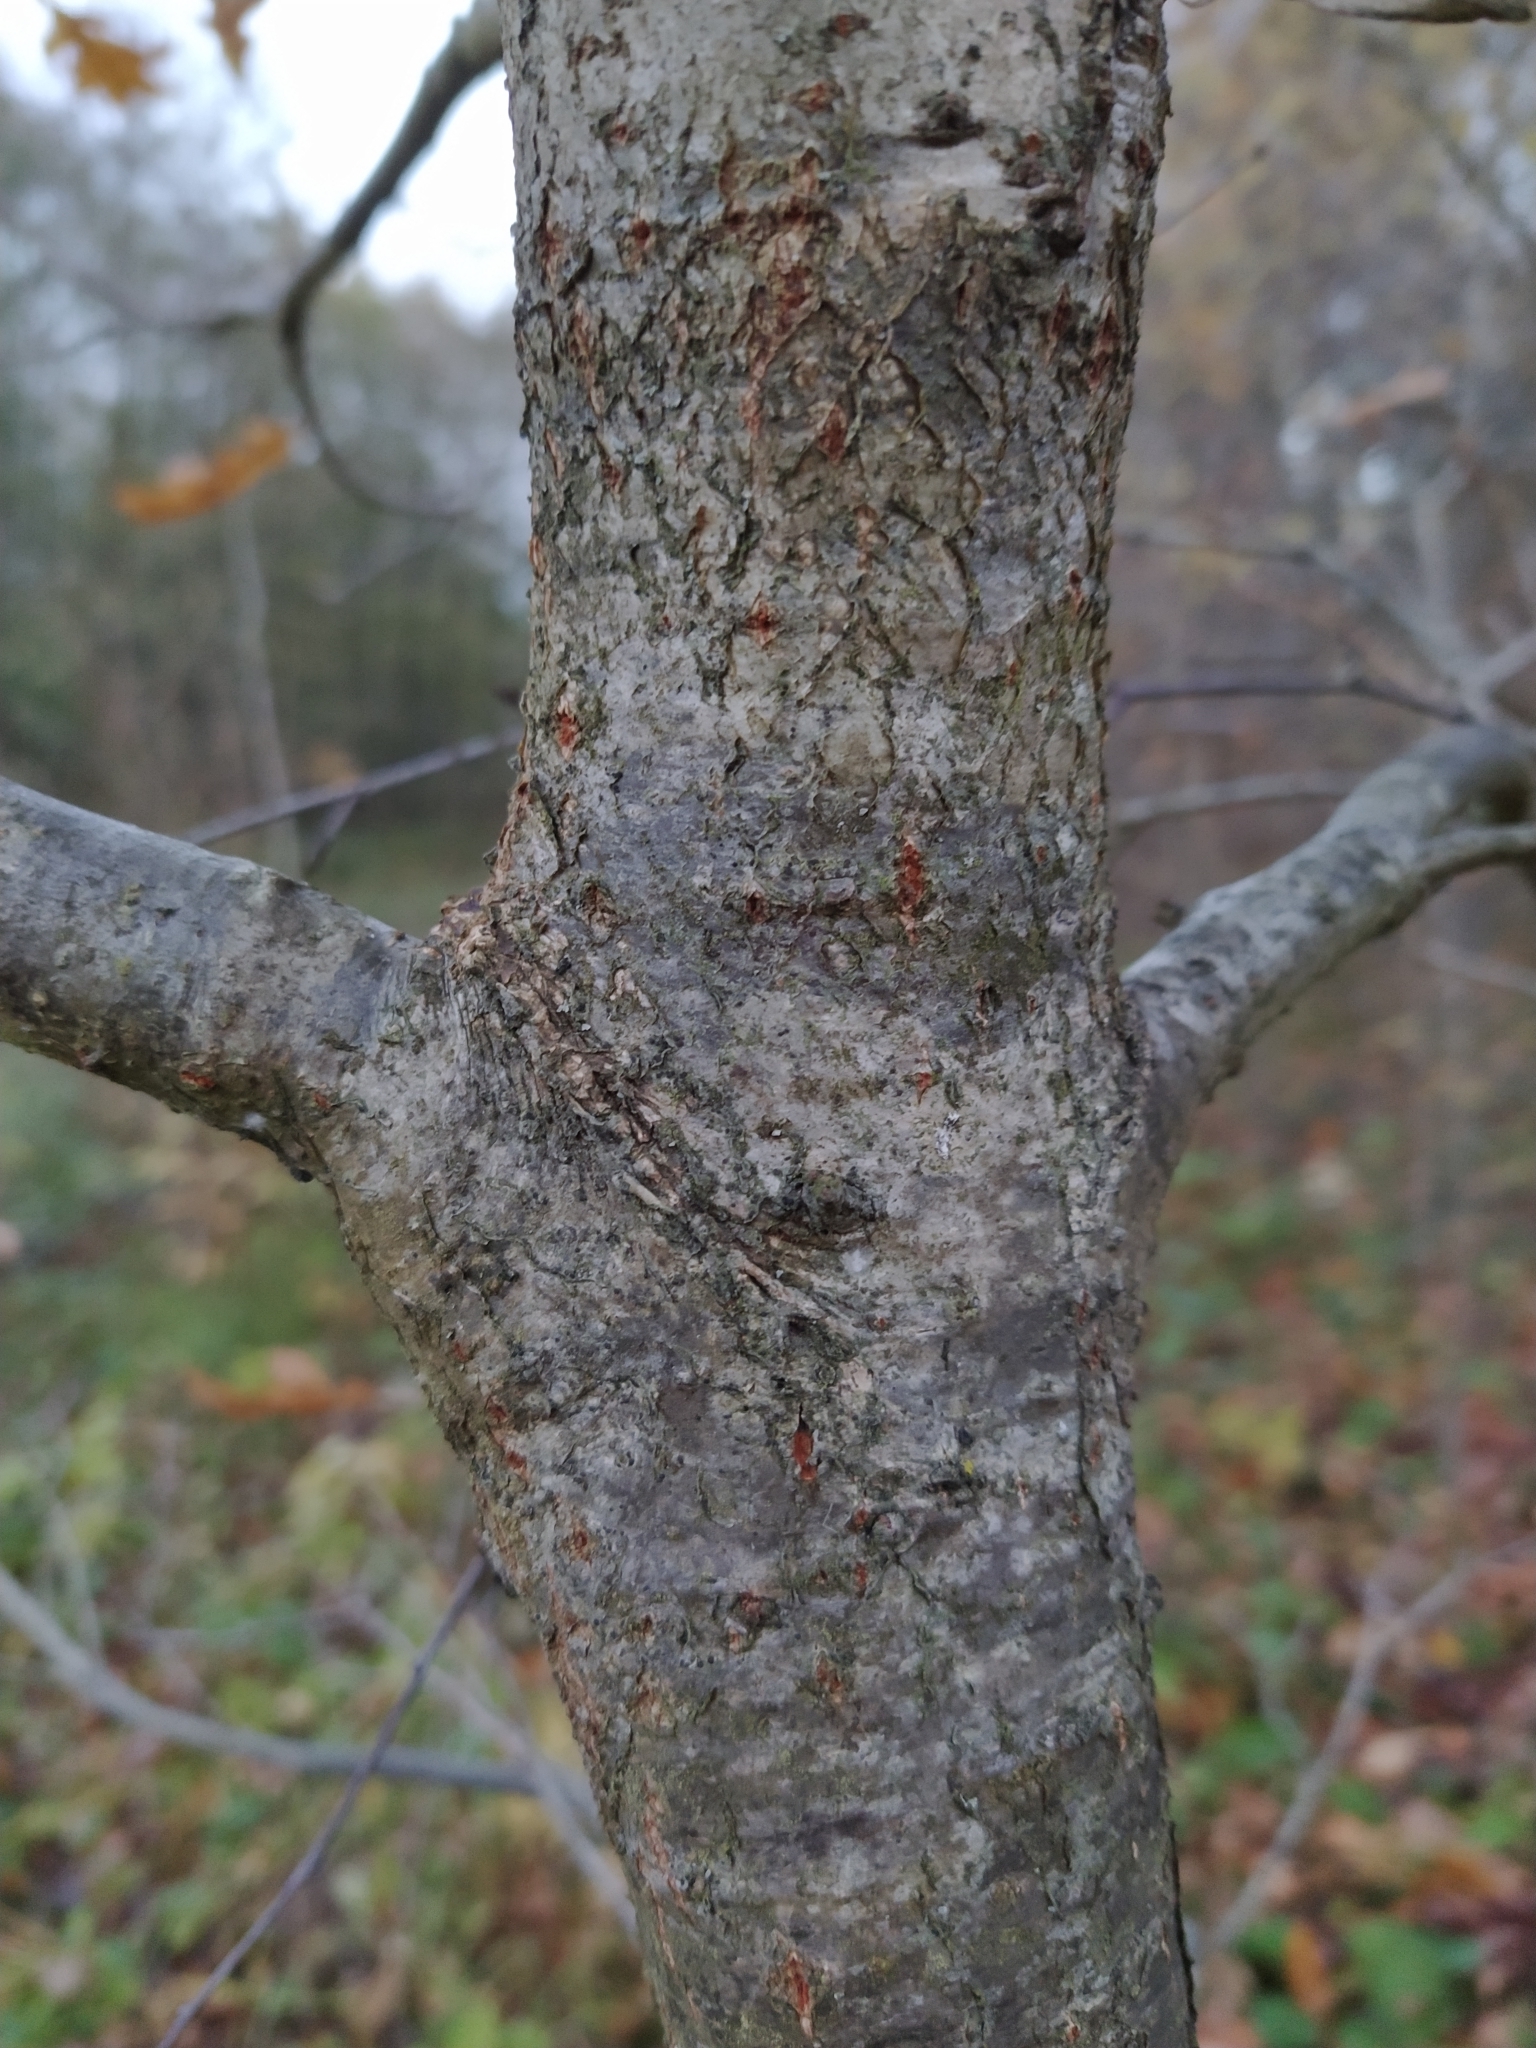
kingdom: Plantae
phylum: Tracheophyta
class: Magnoliopsida
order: Fagales
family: Fagaceae
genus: Quercus
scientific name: Quercus robur
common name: Pedunculate oak
